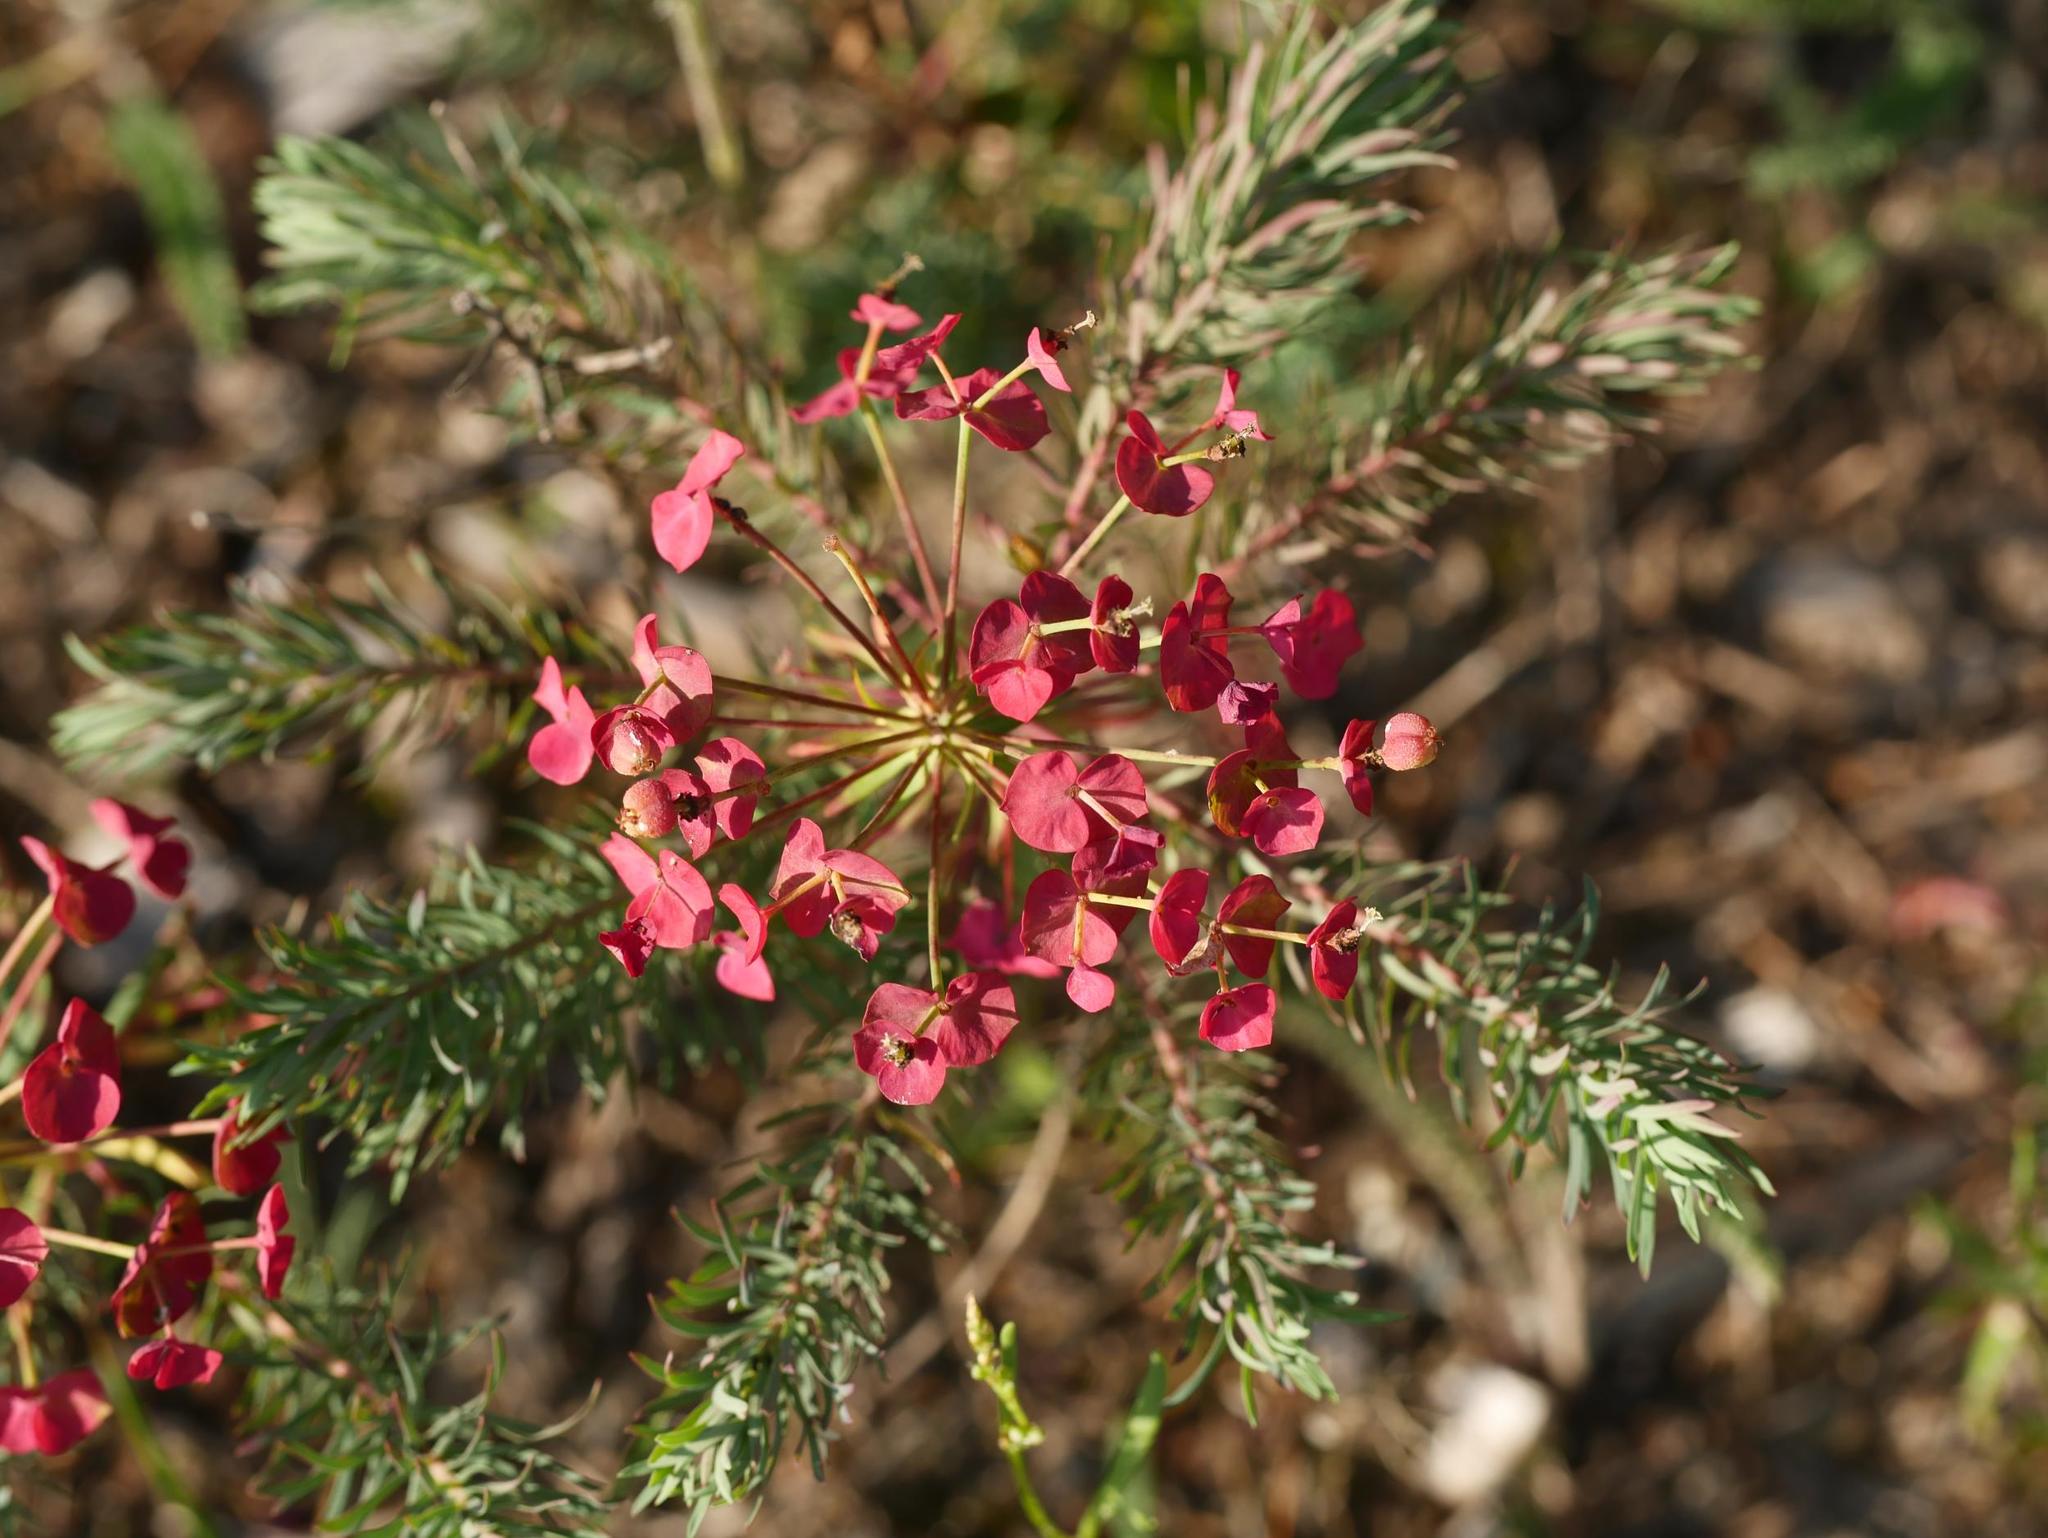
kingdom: Plantae
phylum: Tracheophyta
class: Magnoliopsida
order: Malpighiales
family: Euphorbiaceae
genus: Euphorbia
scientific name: Euphorbia cyparissias
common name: Cypress spurge
